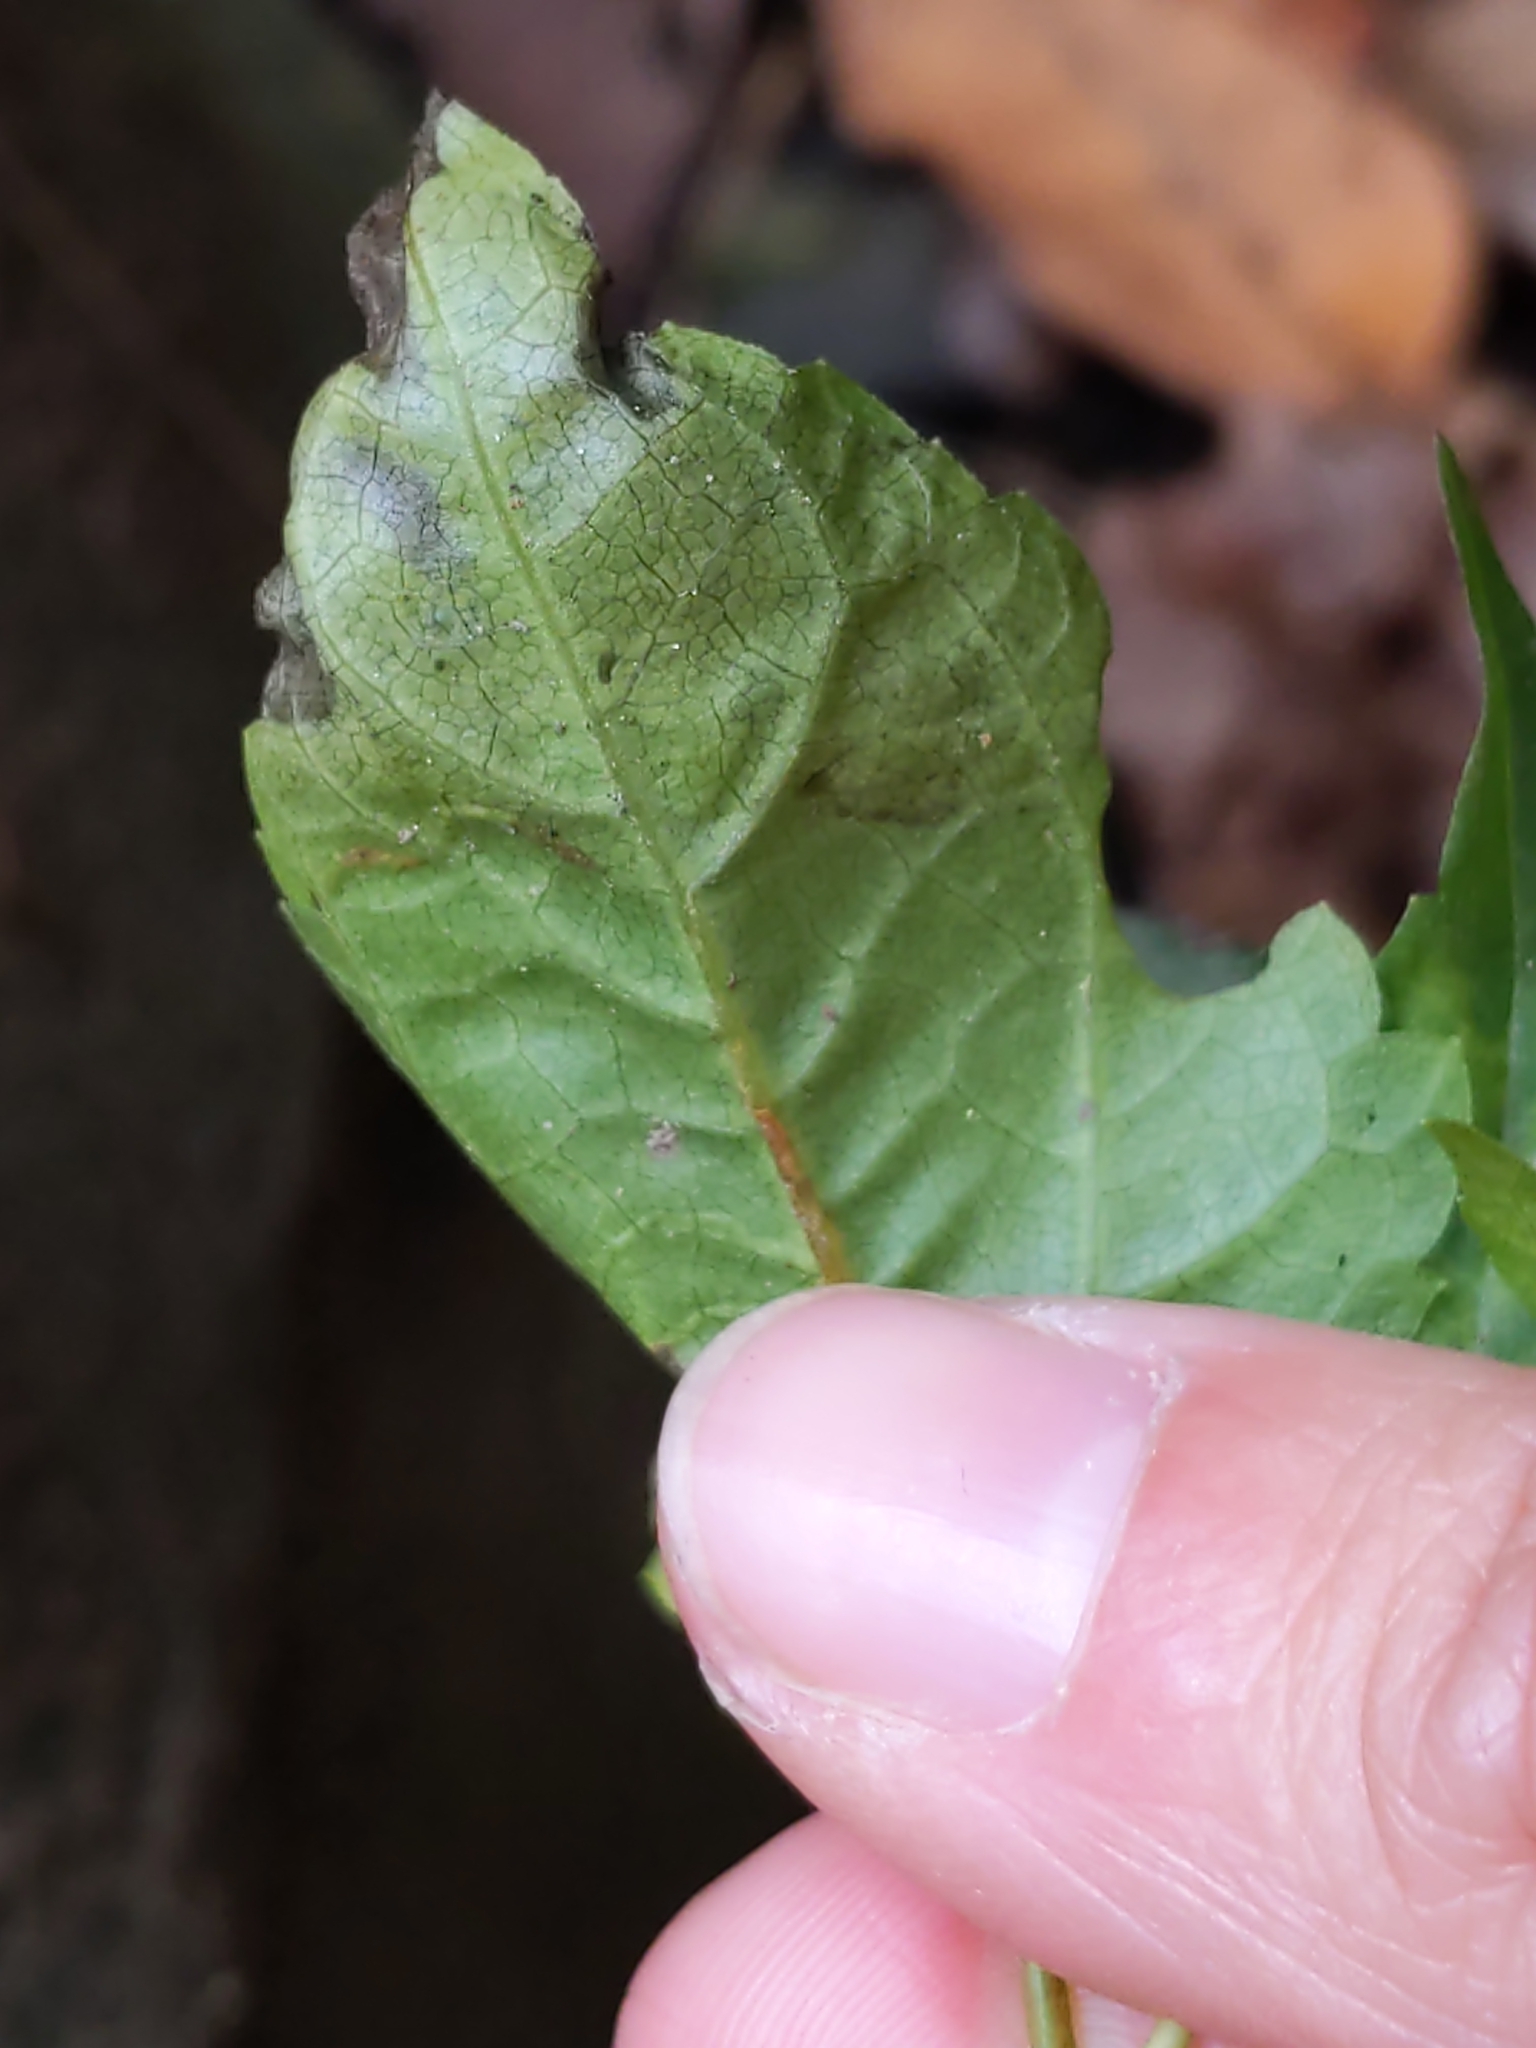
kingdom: Animalia
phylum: Arthropoda
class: Insecta
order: Diptera
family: Agromyzidae
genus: Calycomyza
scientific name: Calycomyza
